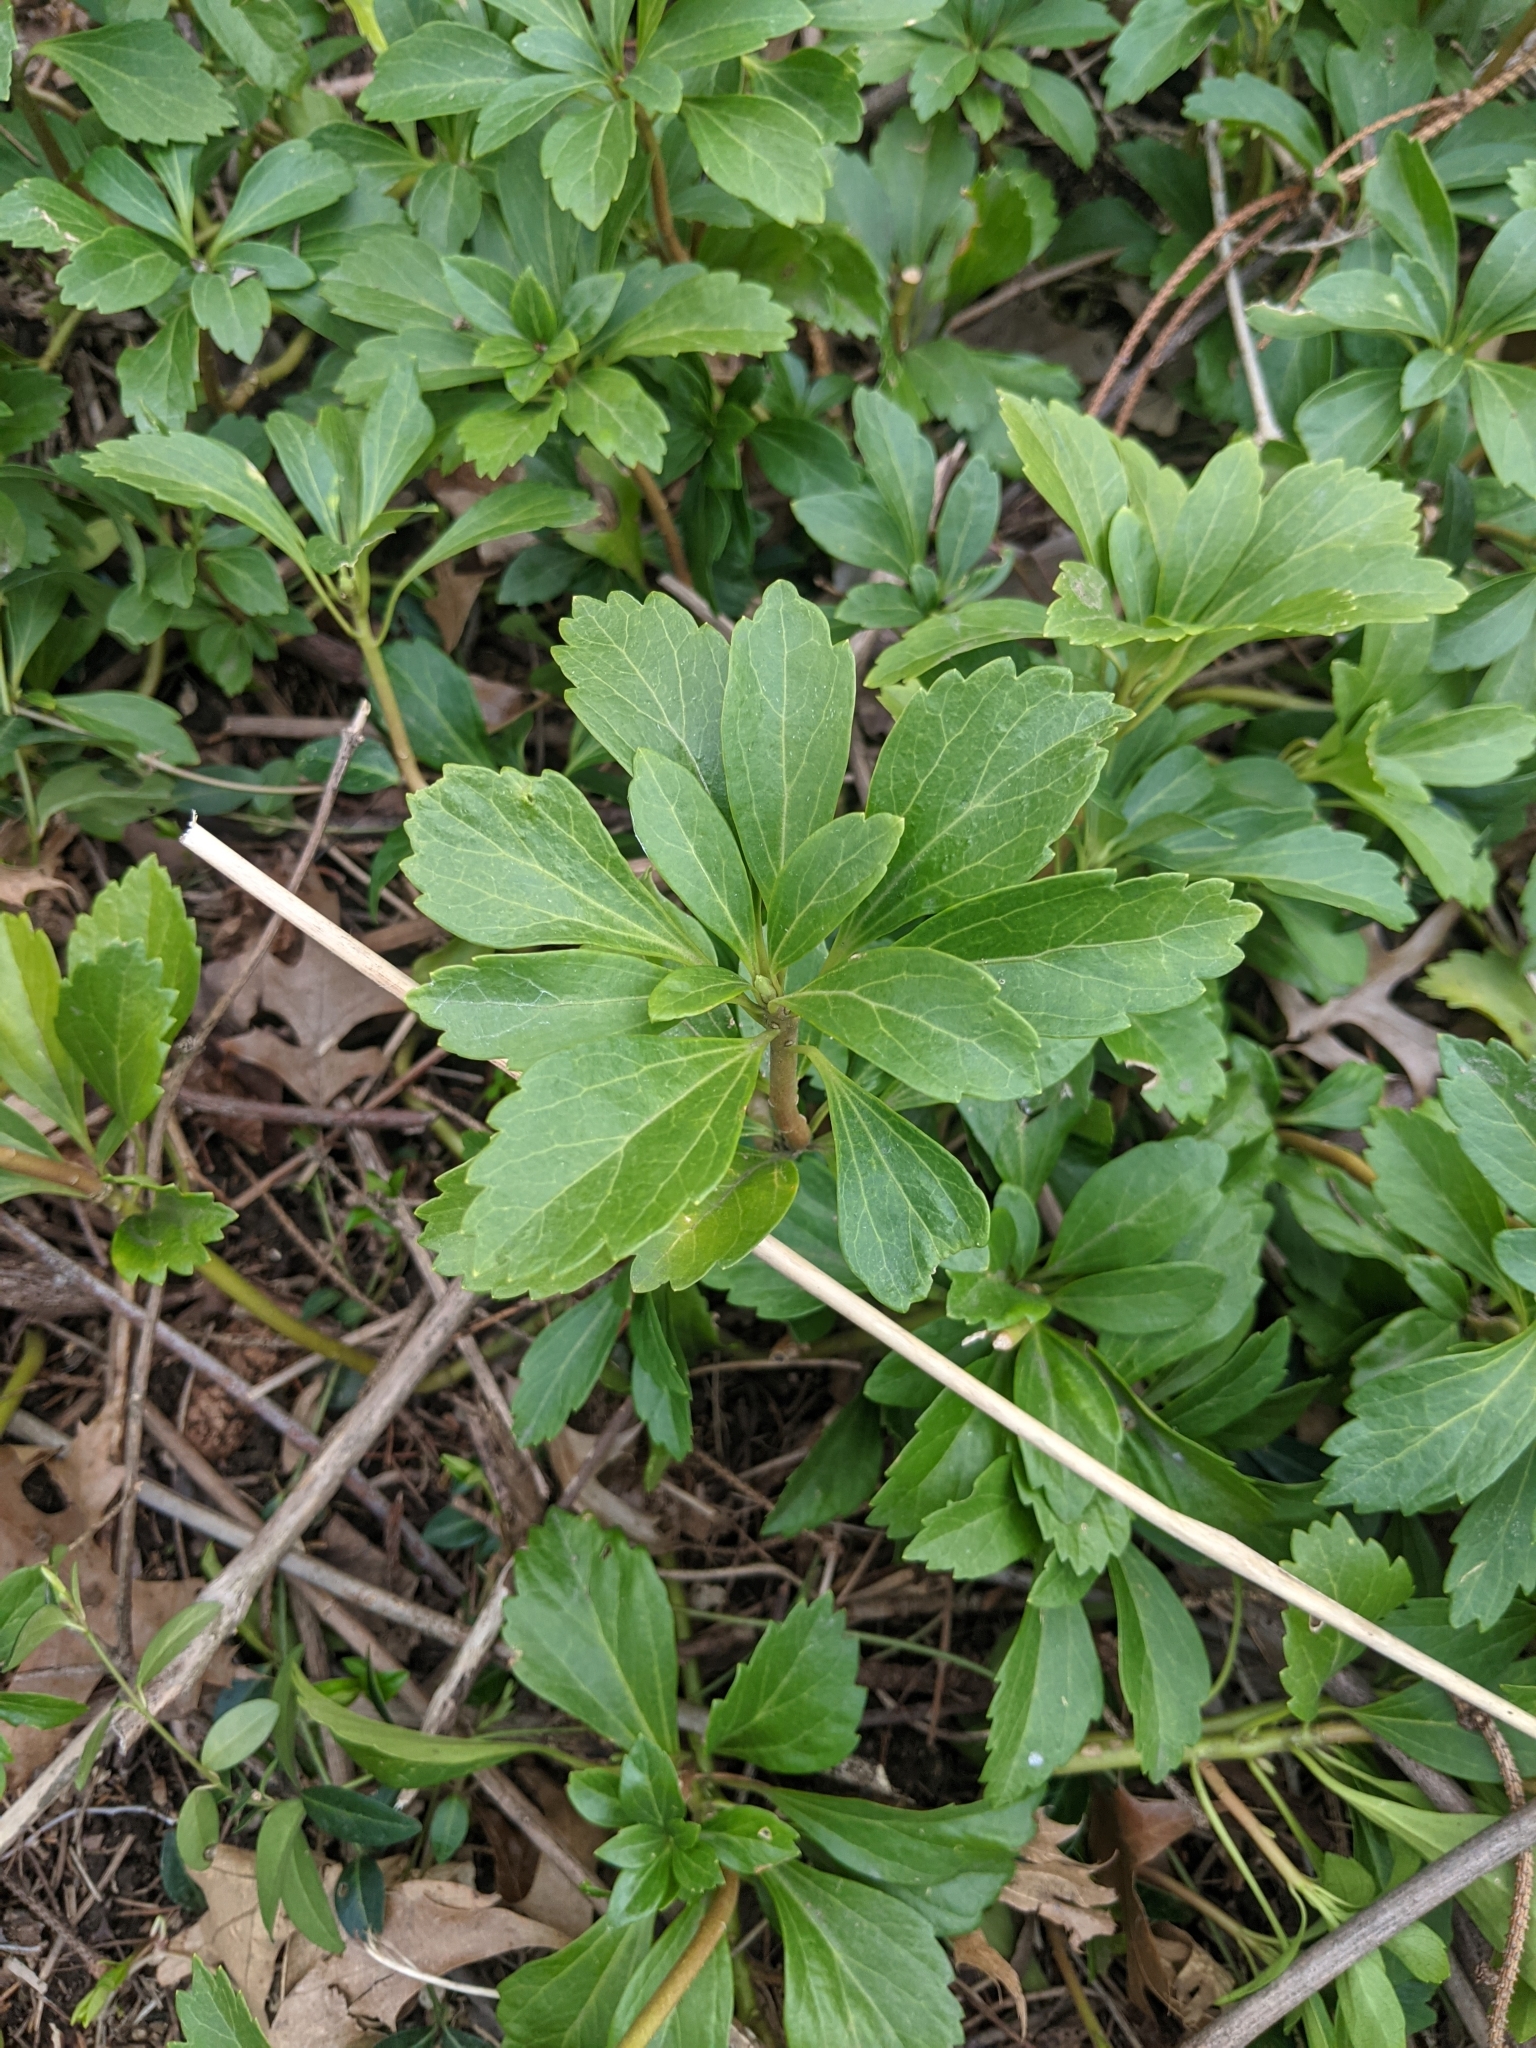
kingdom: Plantae
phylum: Tracheophyta
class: Magnoliopsida
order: Buxales
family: Buxaceae
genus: Pachysandra
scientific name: Pachysandra terminalis
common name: Japanese pachysandra
